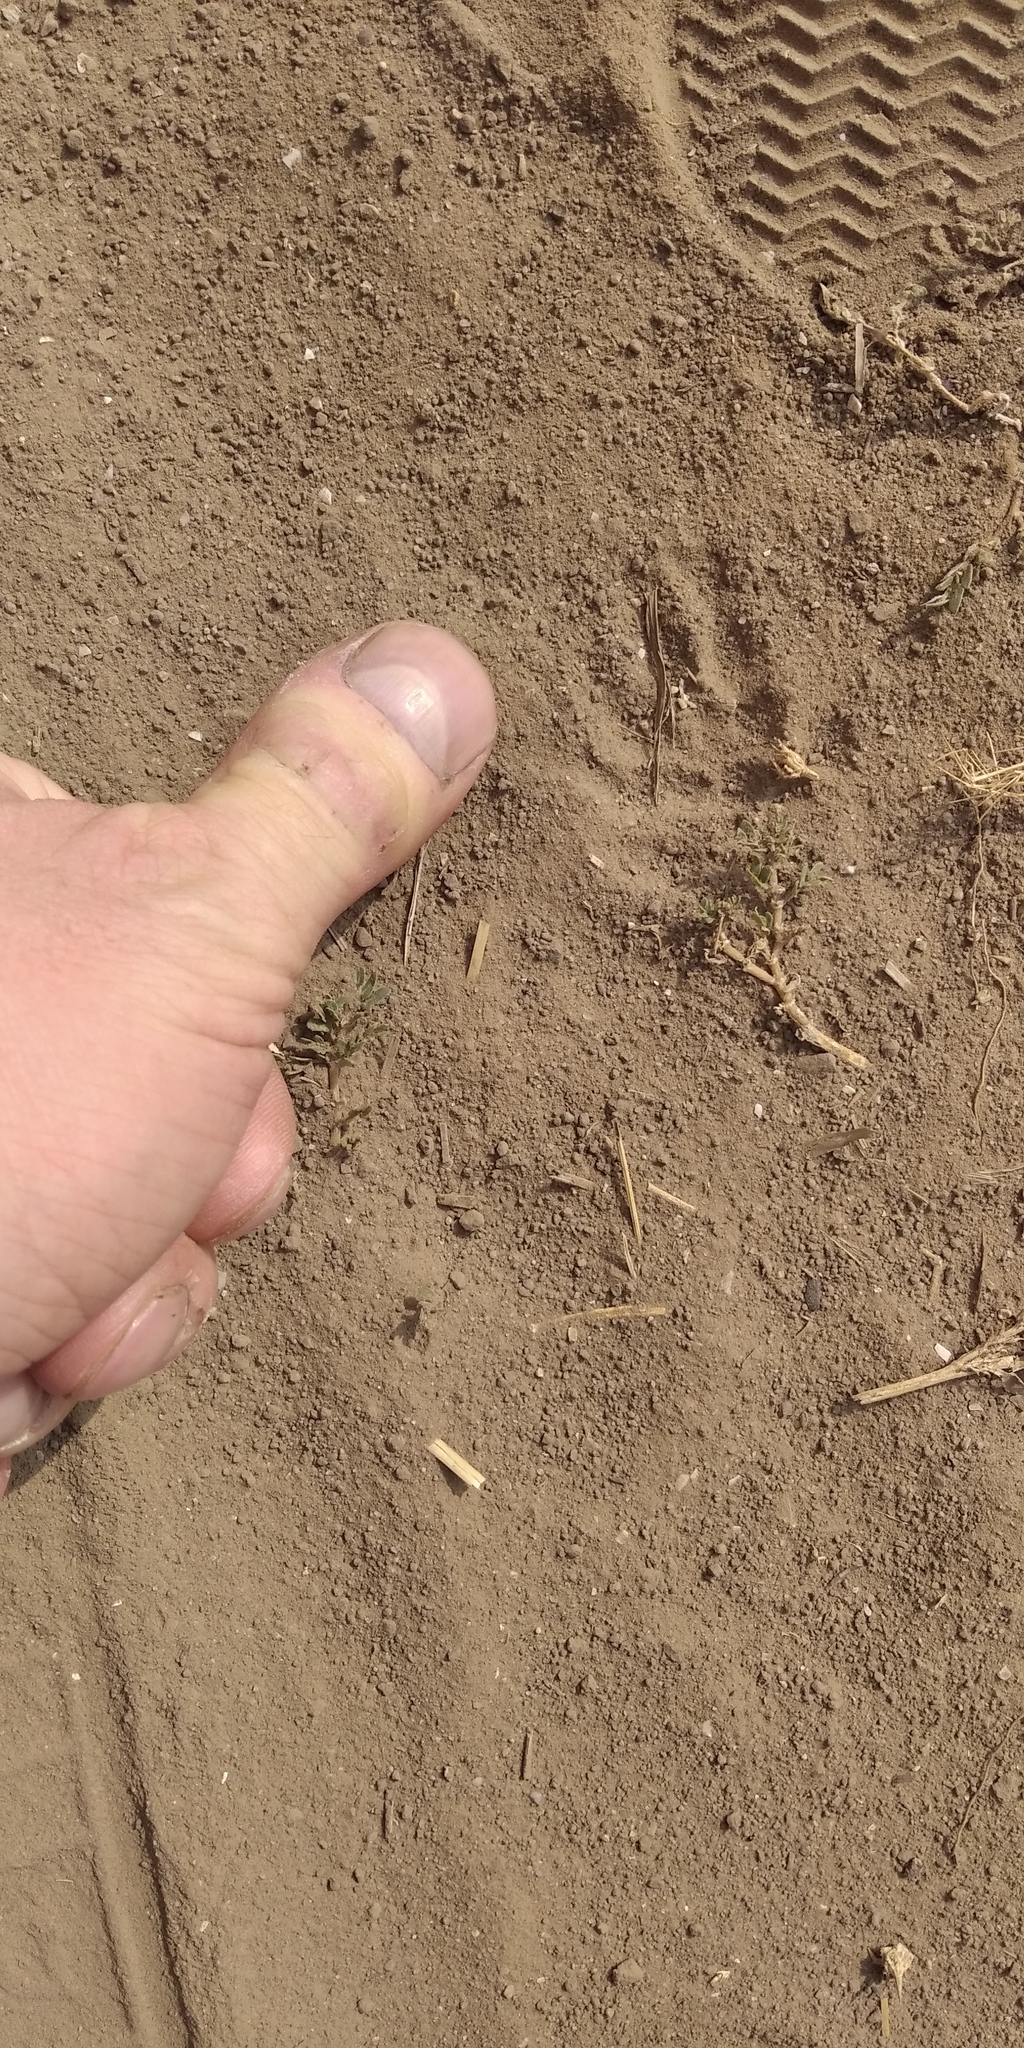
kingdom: Animalia
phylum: Chordata
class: Mammalia
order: Erinaceomorpha
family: Erinaceidae
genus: Erinaceus
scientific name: Erinaceus roumanicus
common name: Northern white-breasted hedgehog
